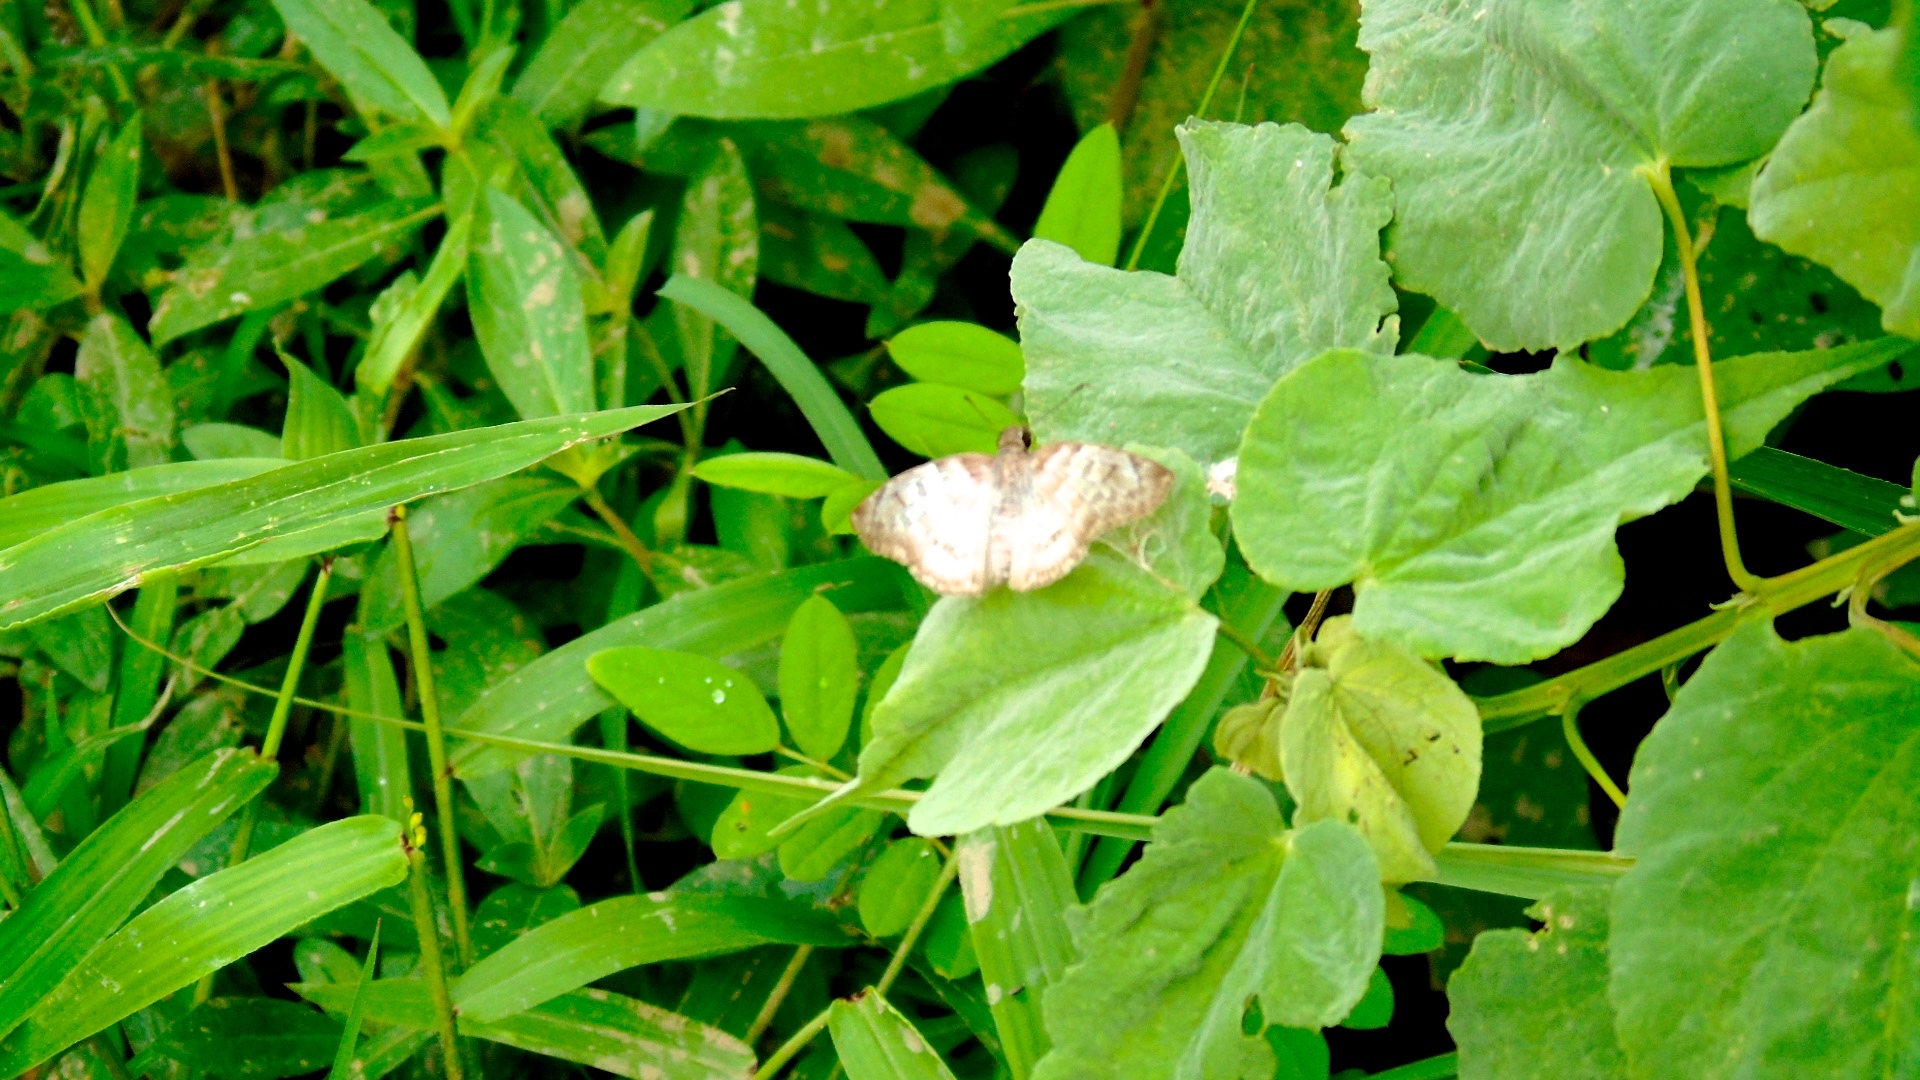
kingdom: Animalia
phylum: Arthropoda
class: Insecta
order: Lepidoptera
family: Hesperiidae
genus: Mylon
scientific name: Mylon pelopidas
